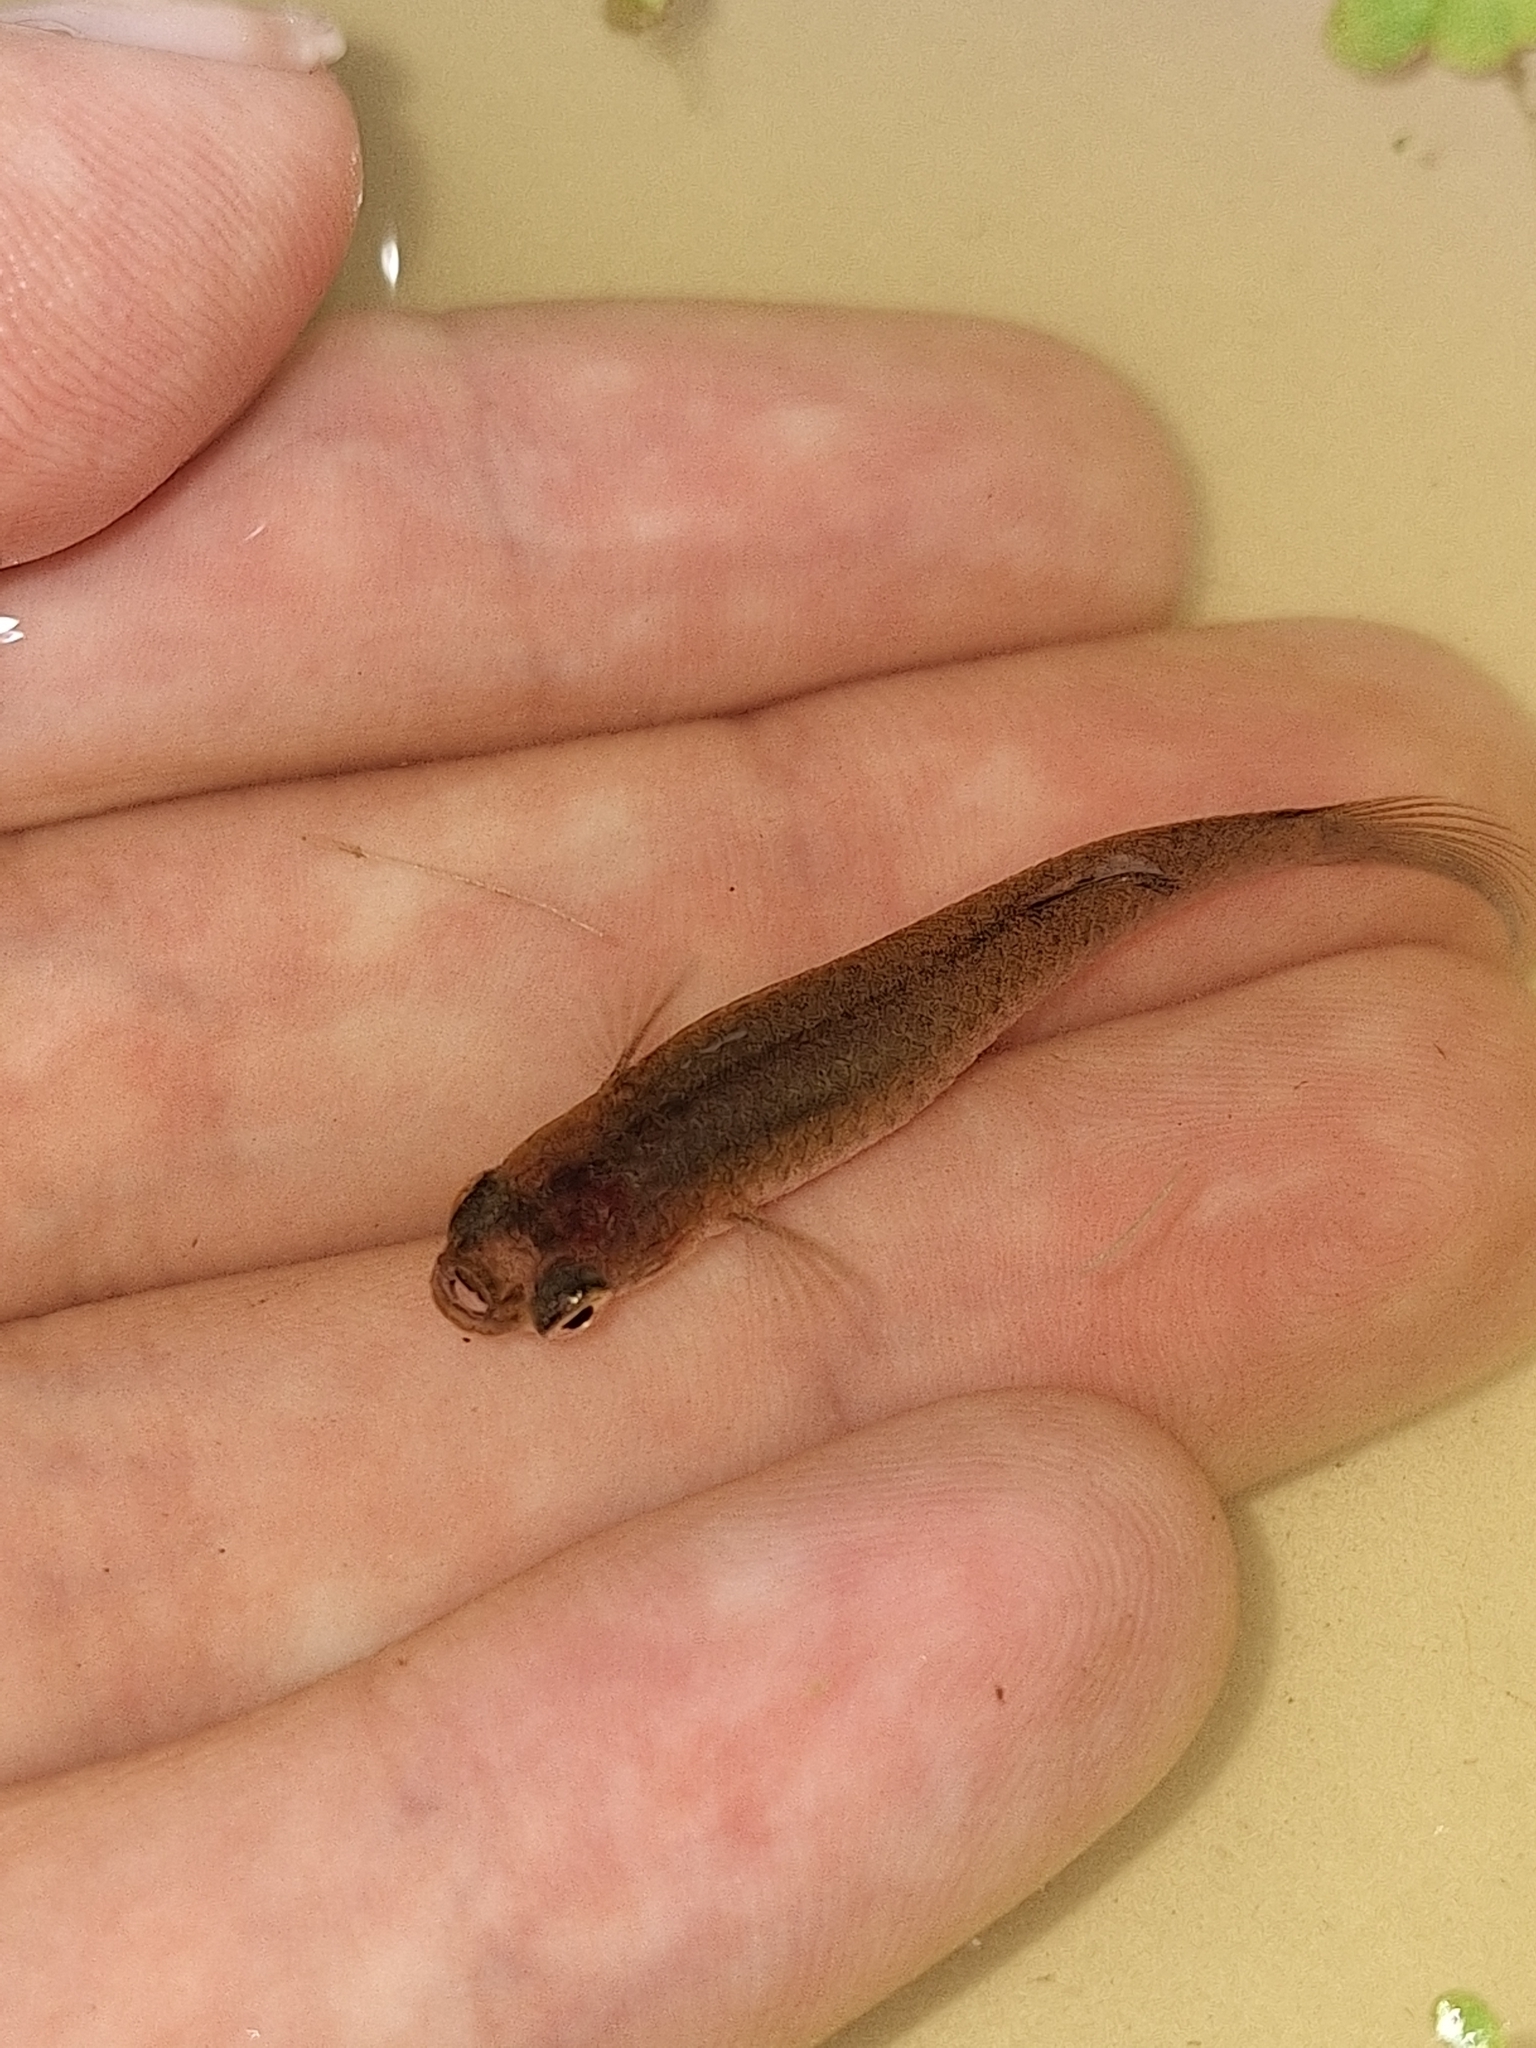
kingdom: Animalia
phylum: Chordata
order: Cyprinodontiformes
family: Poeciliidae
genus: Phalloceros
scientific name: Phalloceros caudimaculatus
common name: Dusky millions fish
